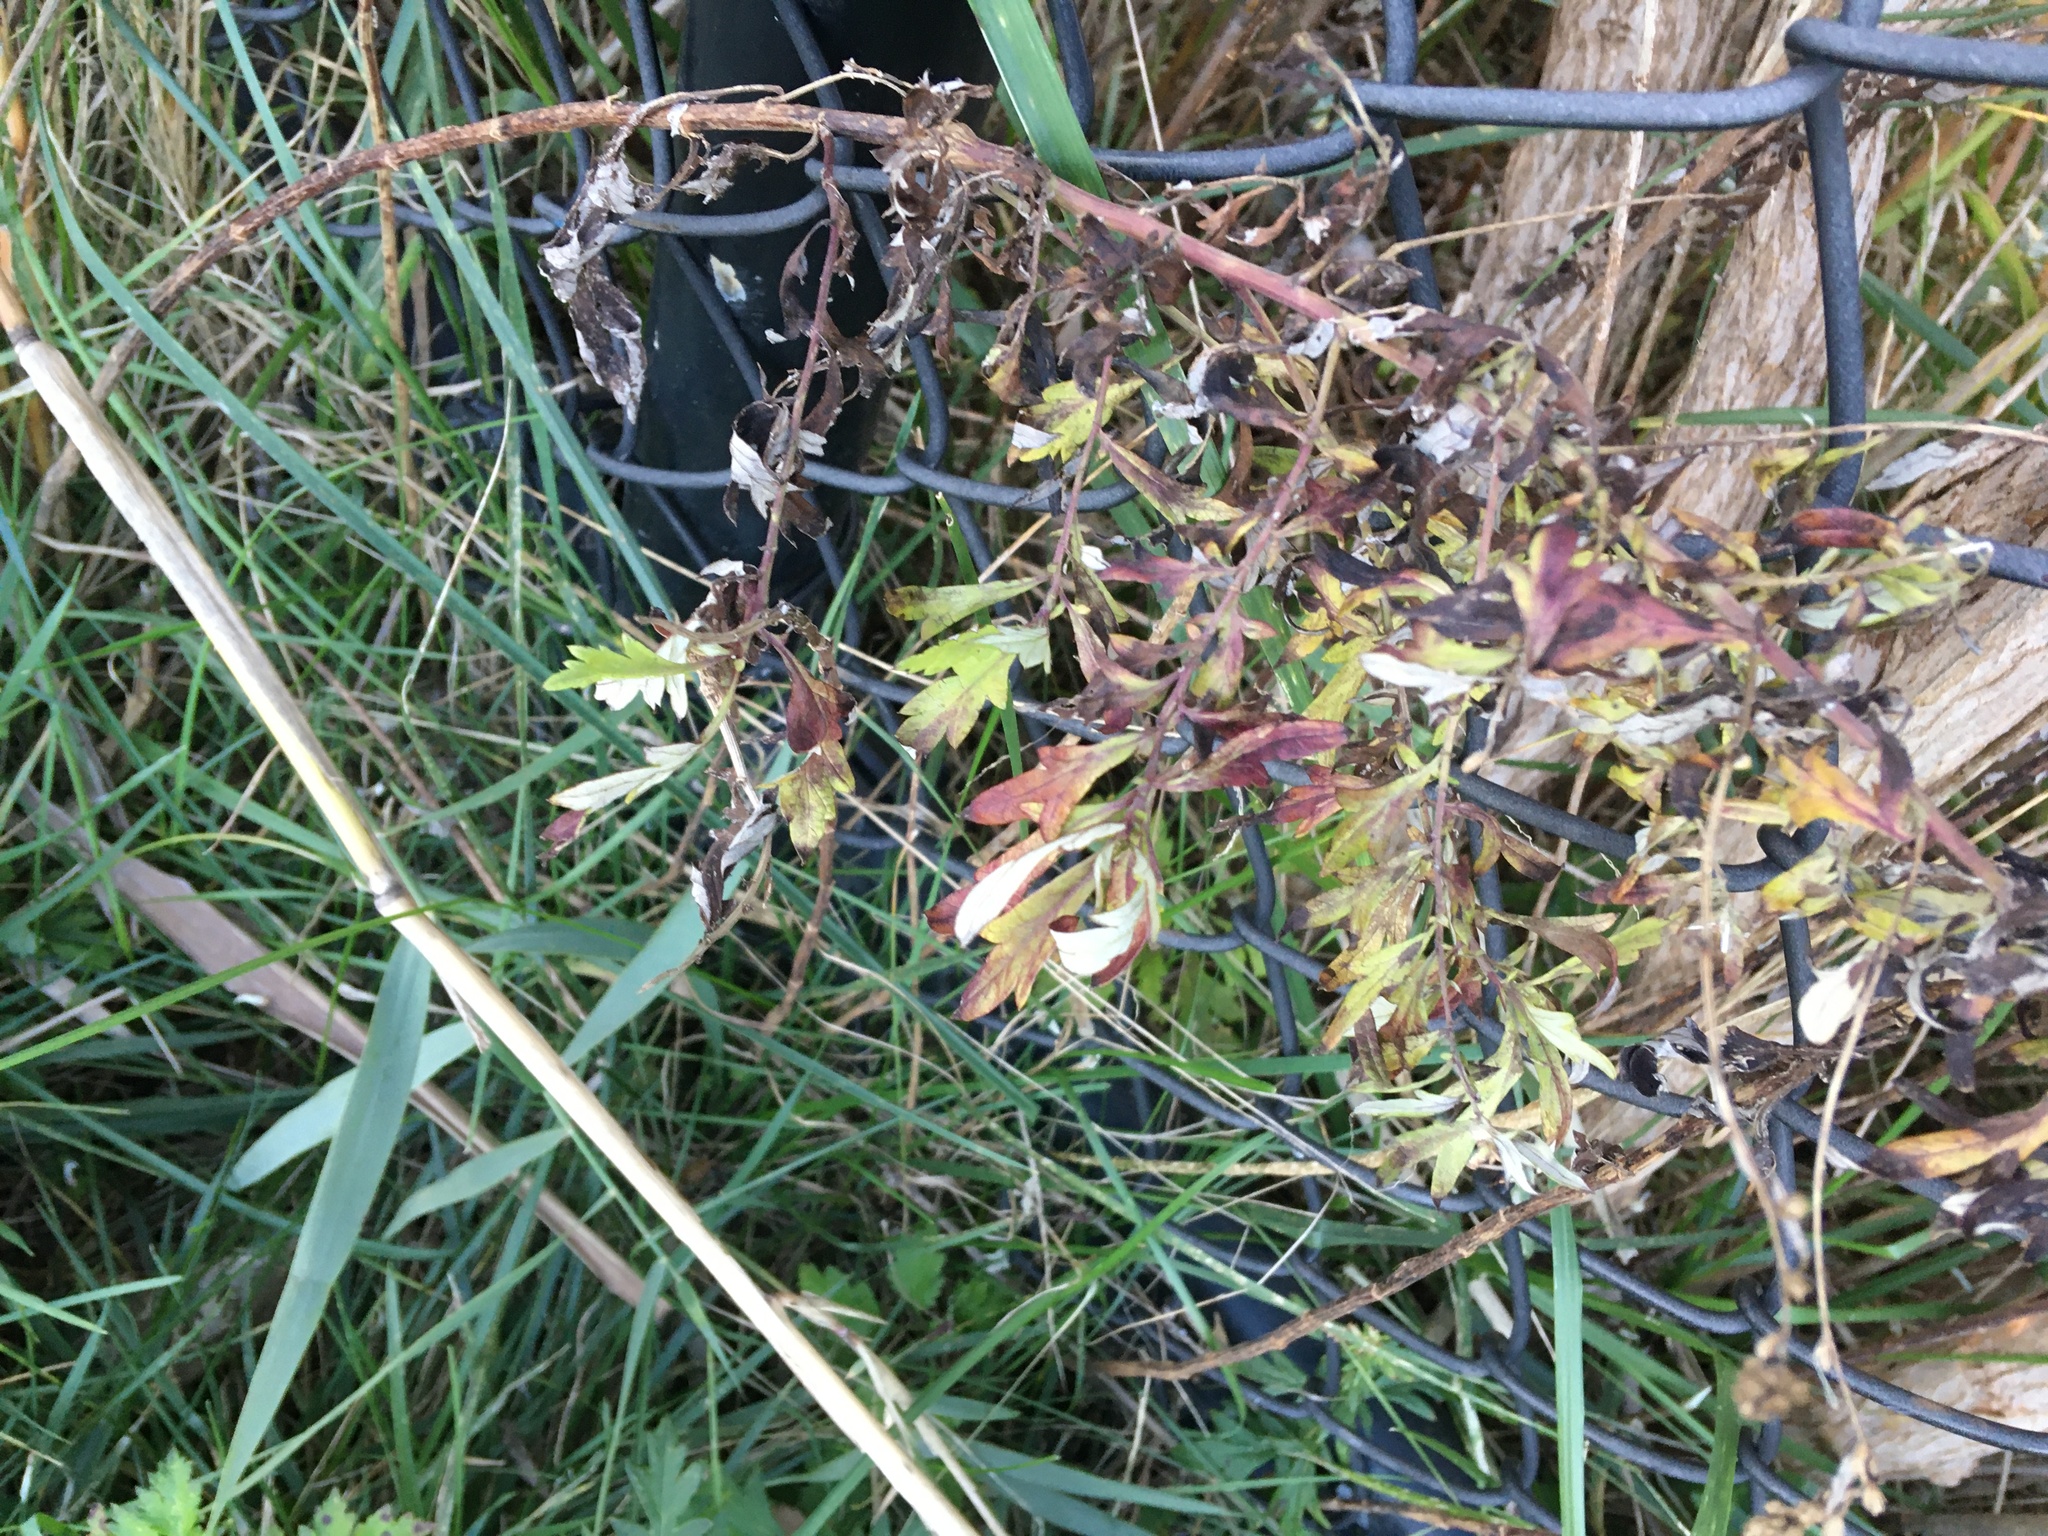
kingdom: Plantae
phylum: Tracheophyta
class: Magnoliopsida
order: Asterales
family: Asteraceae
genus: Artemisia
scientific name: Artemisia vulgaris
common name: Mugwort
